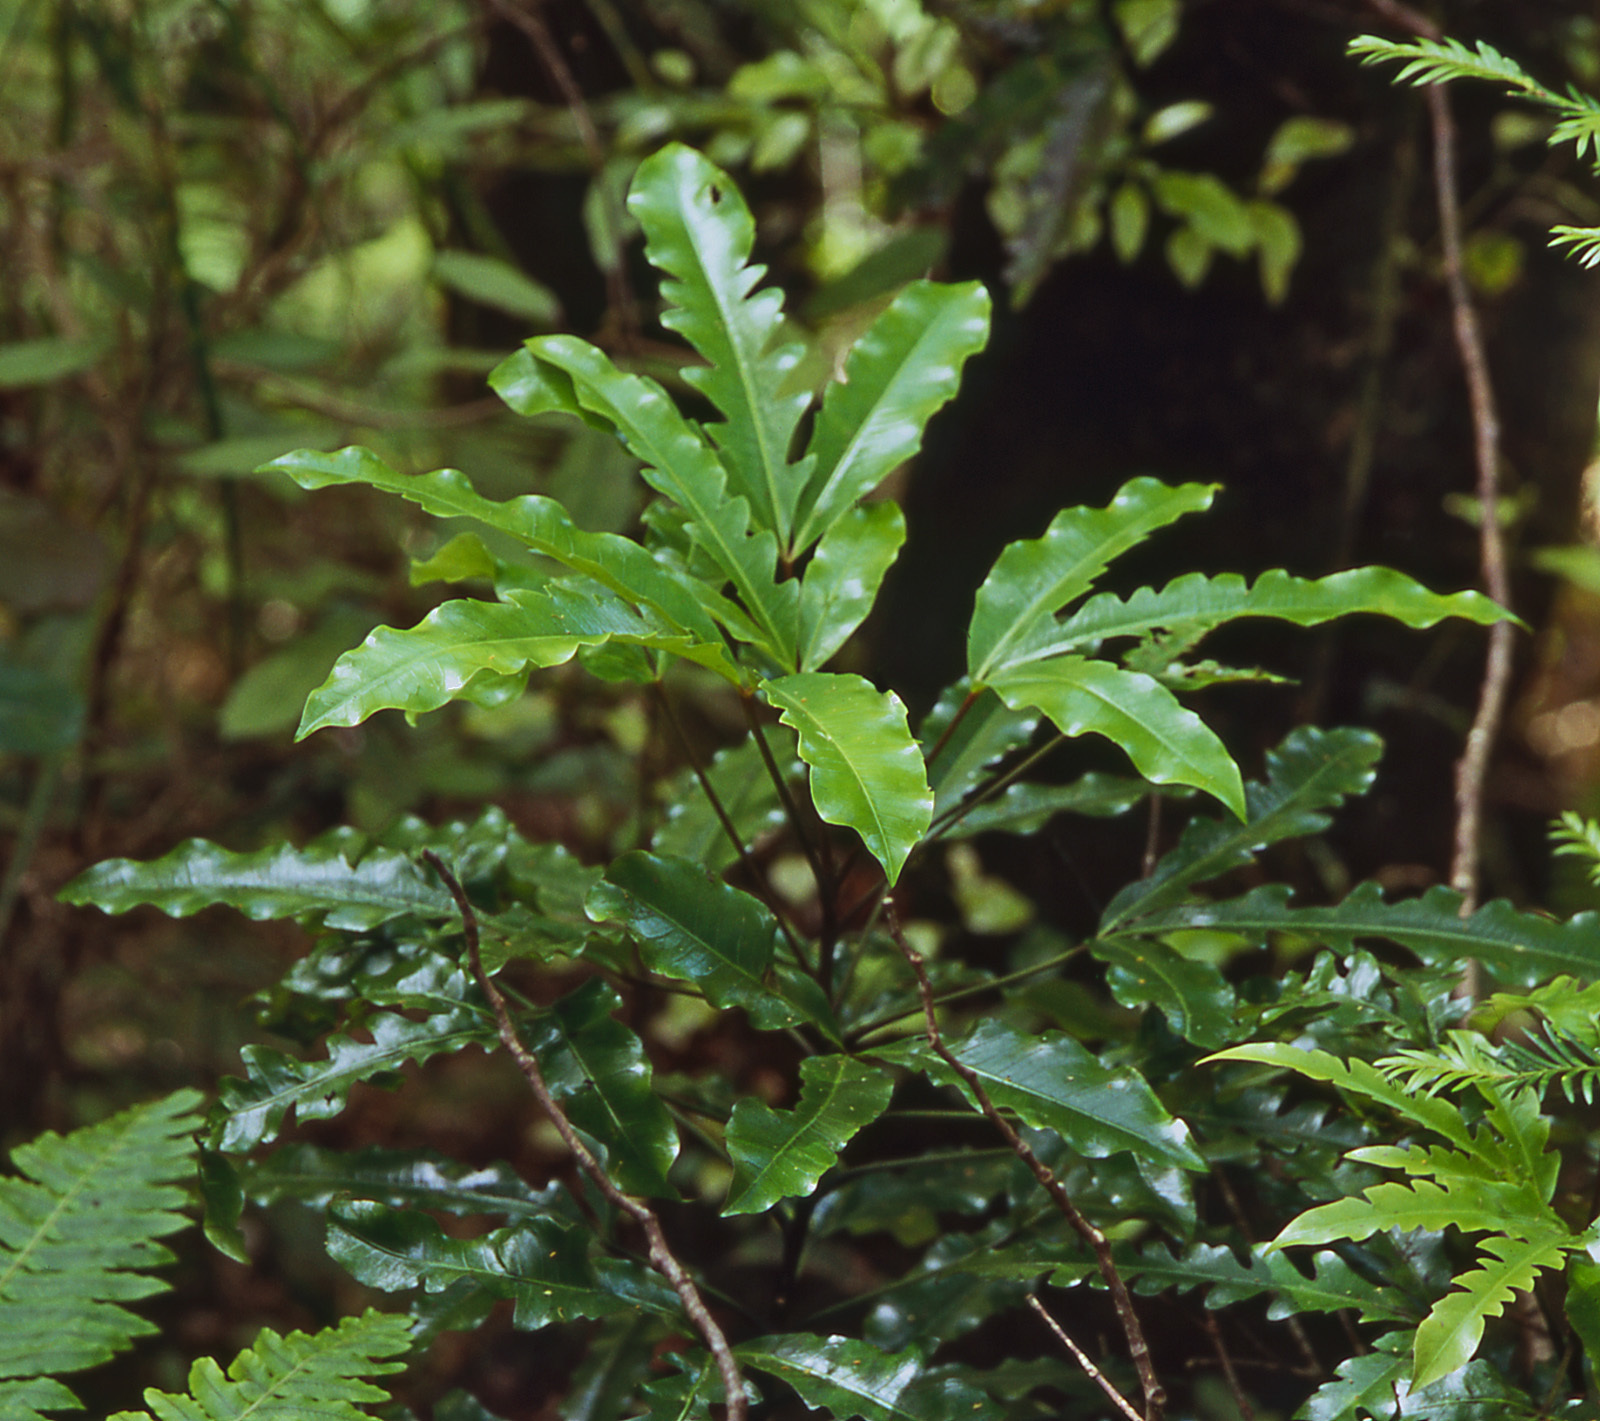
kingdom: Plantae
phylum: Tracheophyta
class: Magnoliopsida
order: Apiales
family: Araliaceae
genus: Raukaua
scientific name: Raukaua edgerleyi
